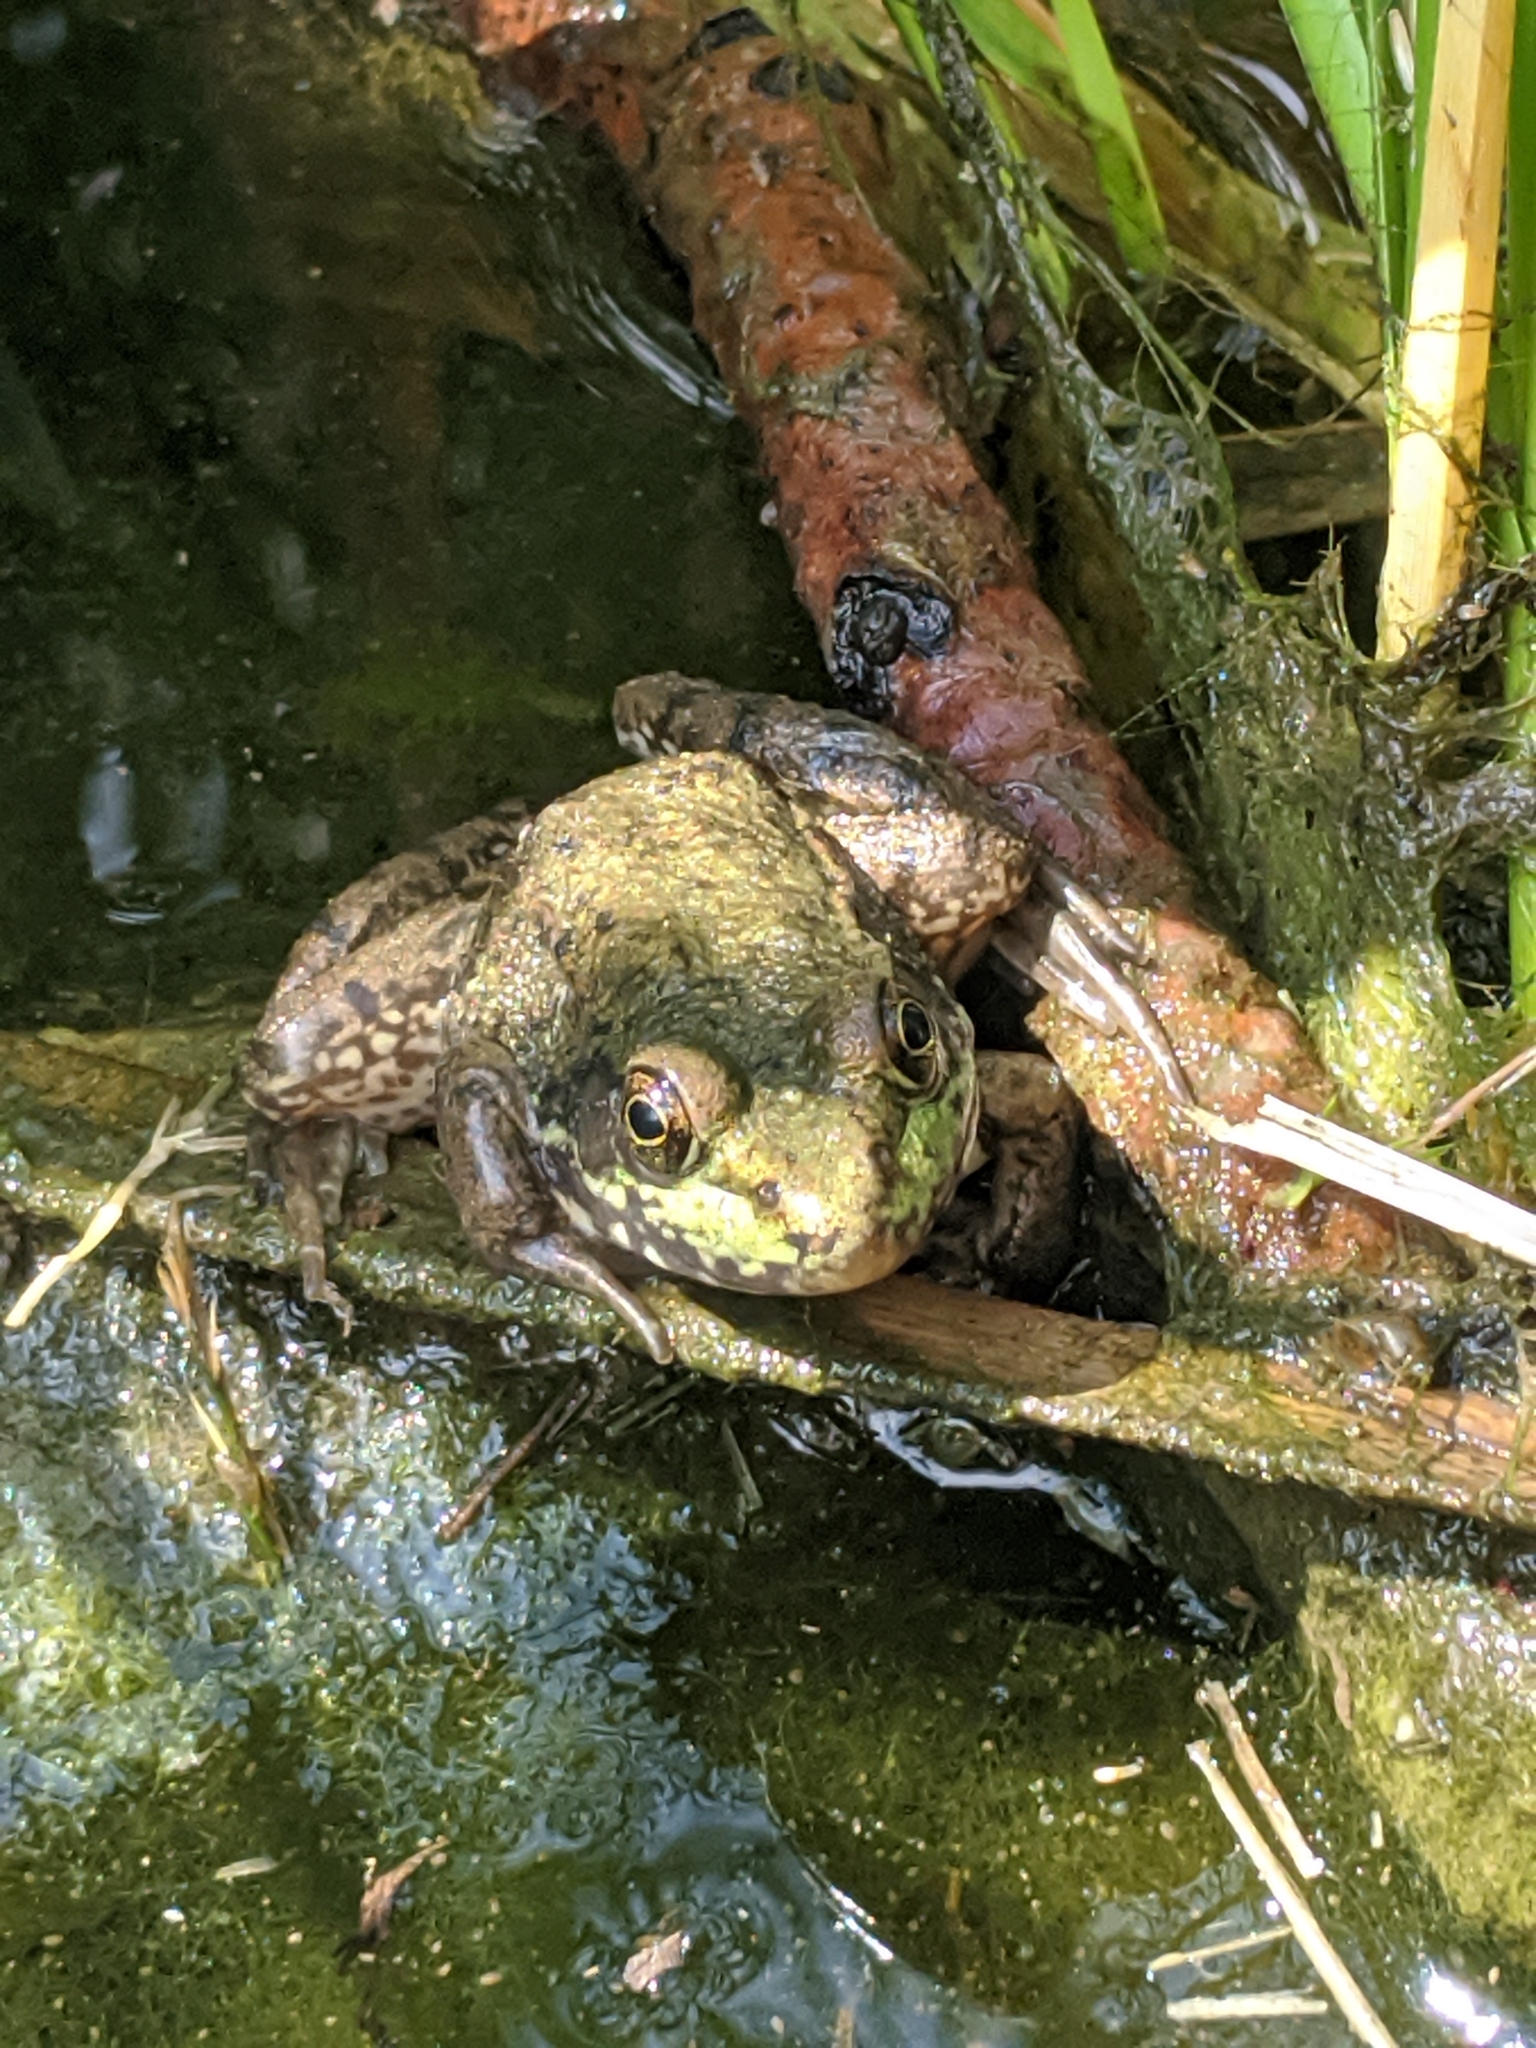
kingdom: Animalia
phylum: Chordata
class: Amphibia
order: Anura
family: Ranidae
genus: Lithobates
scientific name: Lithobates clamitans
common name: Green frog
